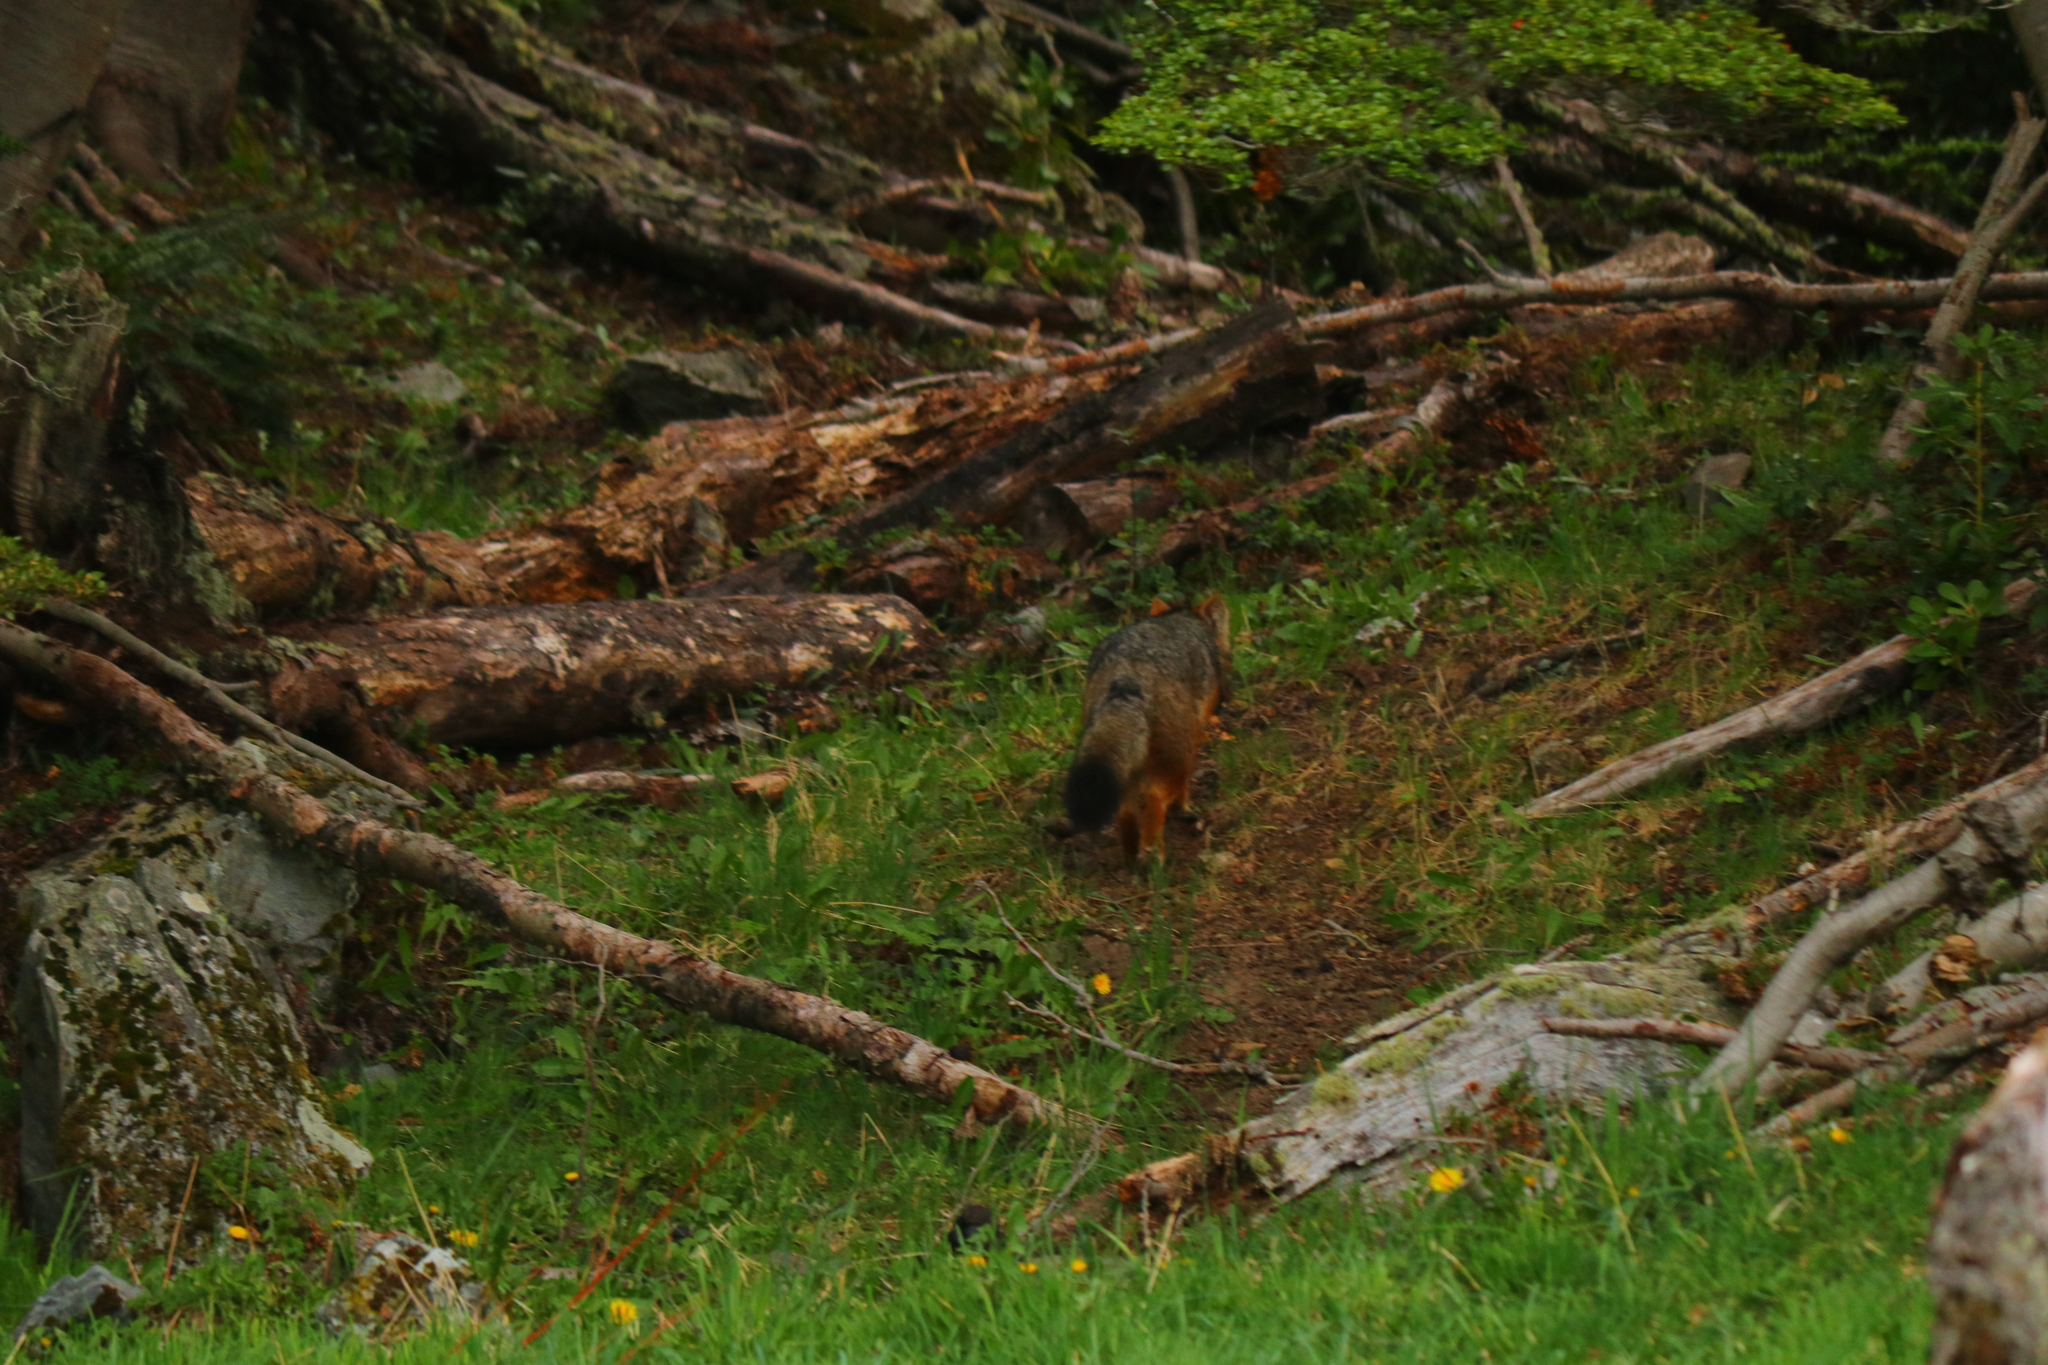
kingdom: Animalia
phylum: Chordata
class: Mammalia
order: Carnivora
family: Canidae
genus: Lycalopex
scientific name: Lycalopex culpaeus
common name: Culpeo
